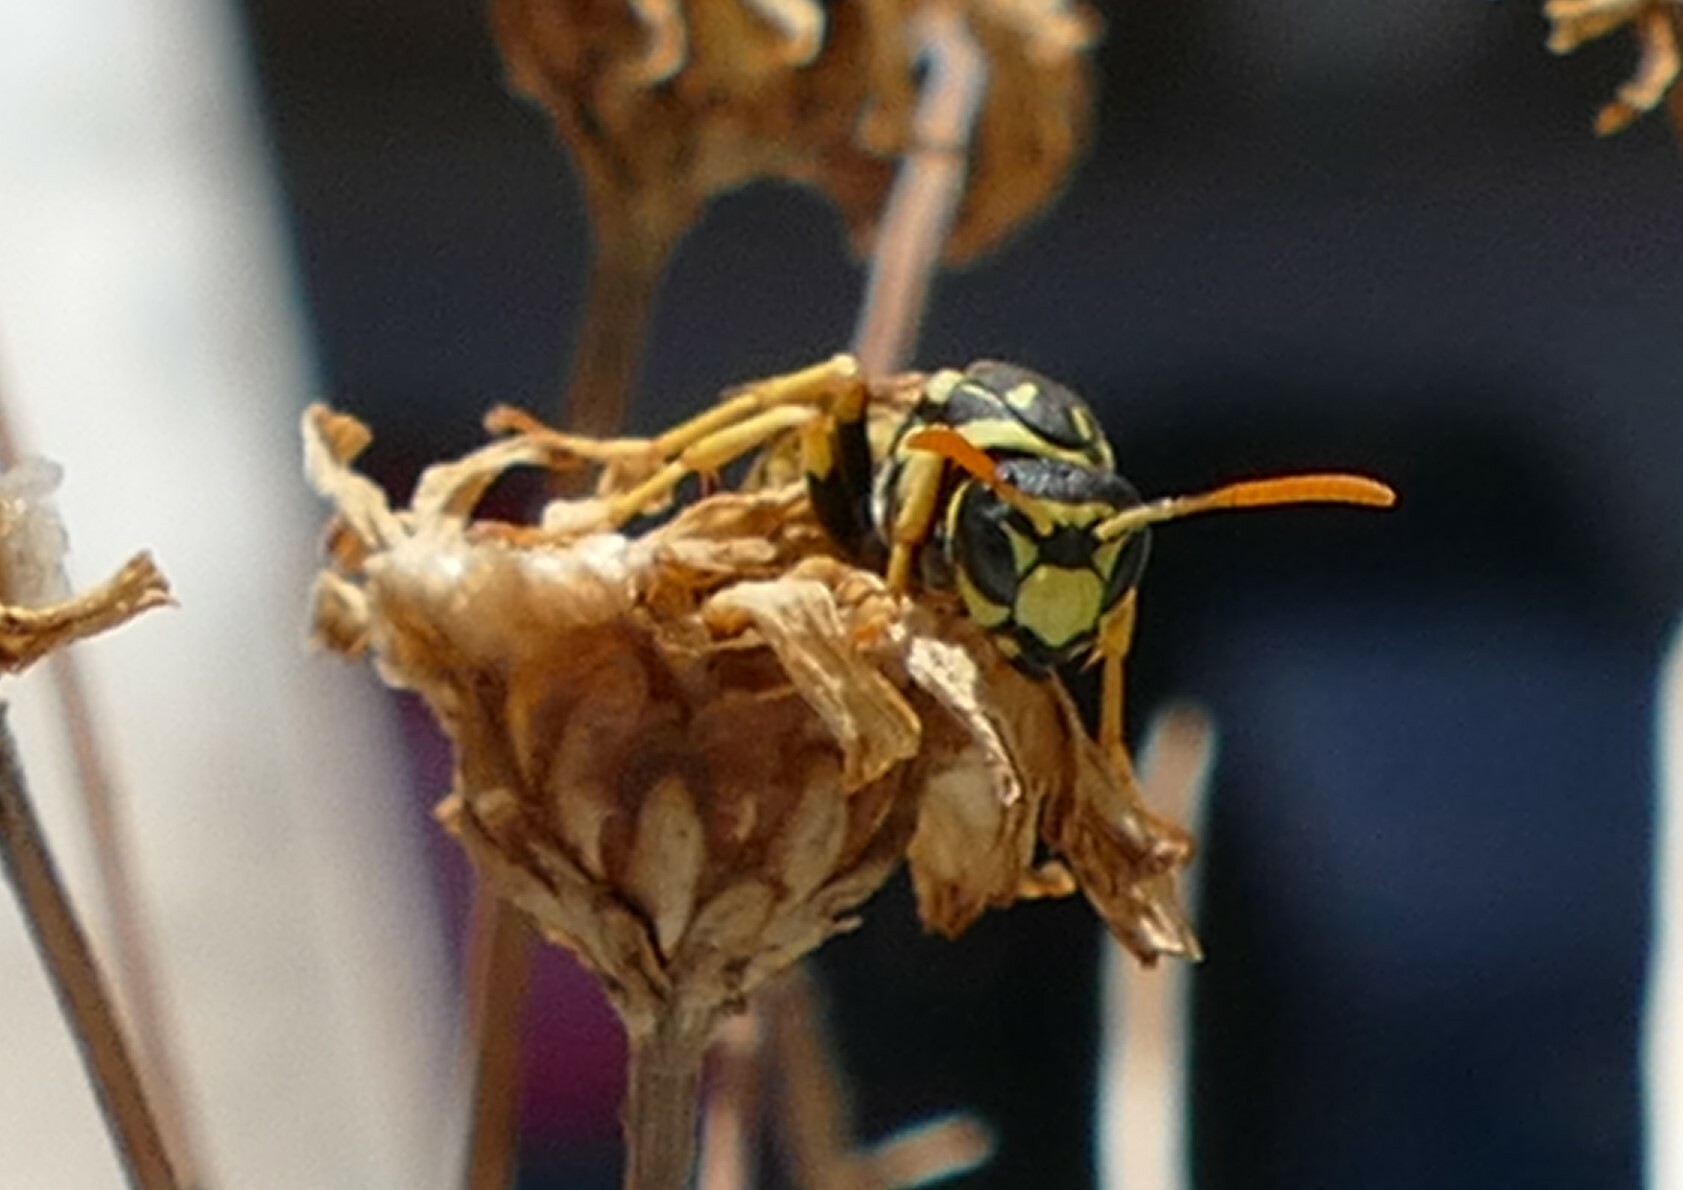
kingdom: Animalia
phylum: Arthropoda
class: Insecta
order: Hymenoptera
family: Eumenidae
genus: Polistes
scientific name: Polistes dominula
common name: Paper wasp
